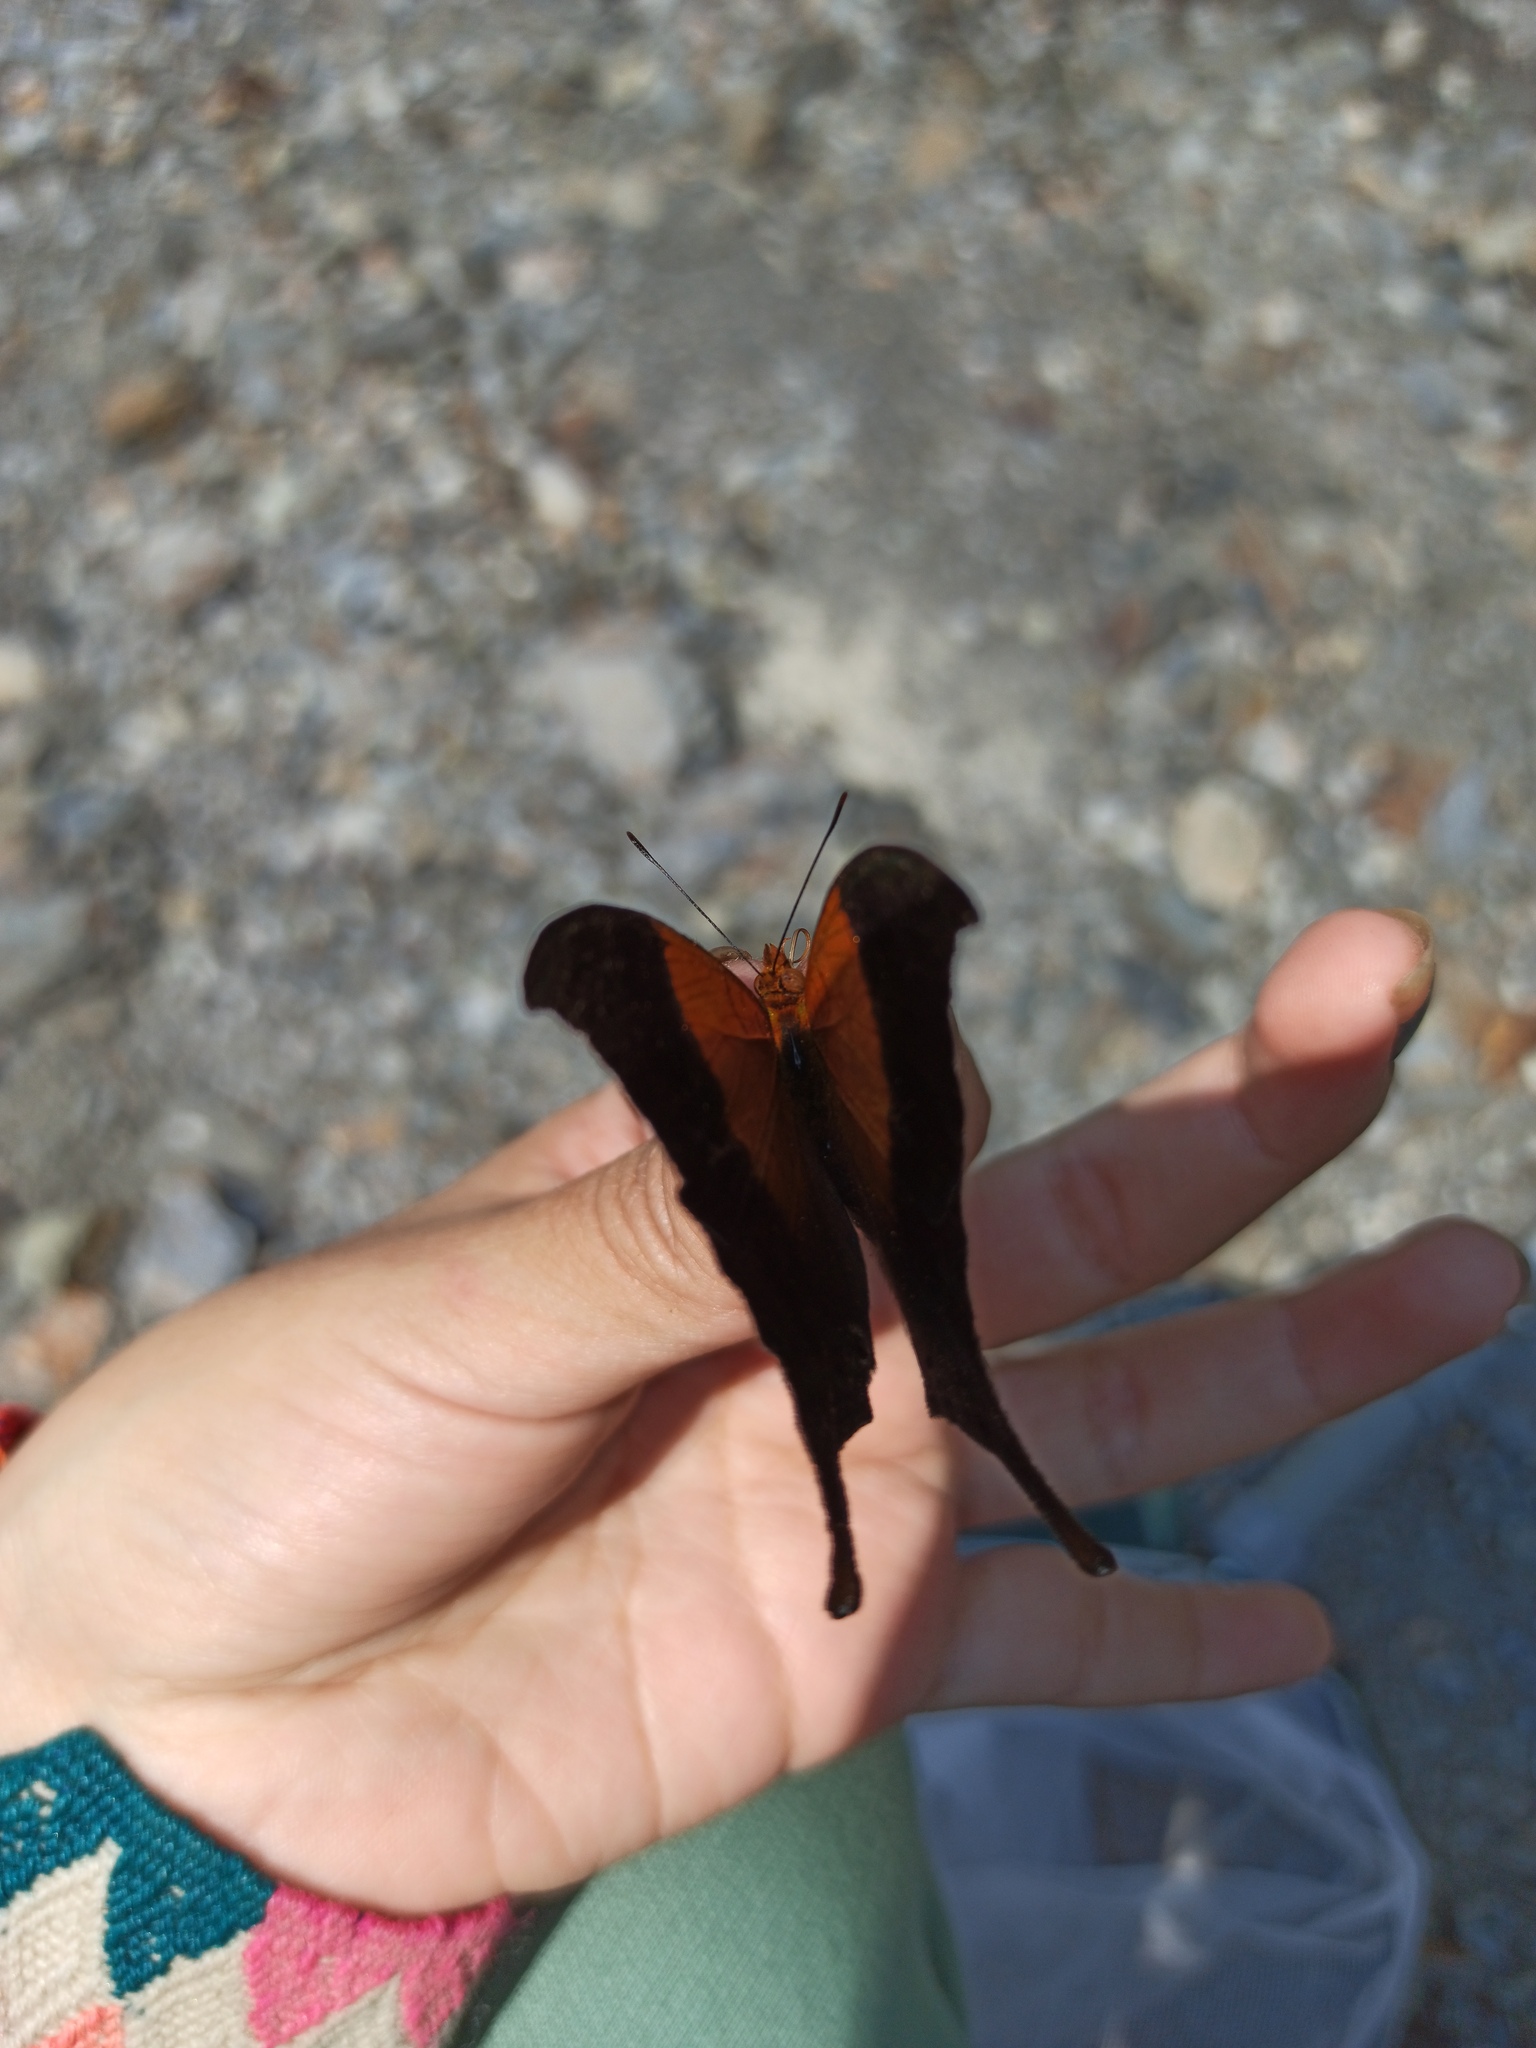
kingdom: Animalia
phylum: Arthropoda
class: Insecta
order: Lepidoptera
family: Nymphalidae
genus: Marpesia
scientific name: Marpesia furcula
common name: Sunset daggerwing
